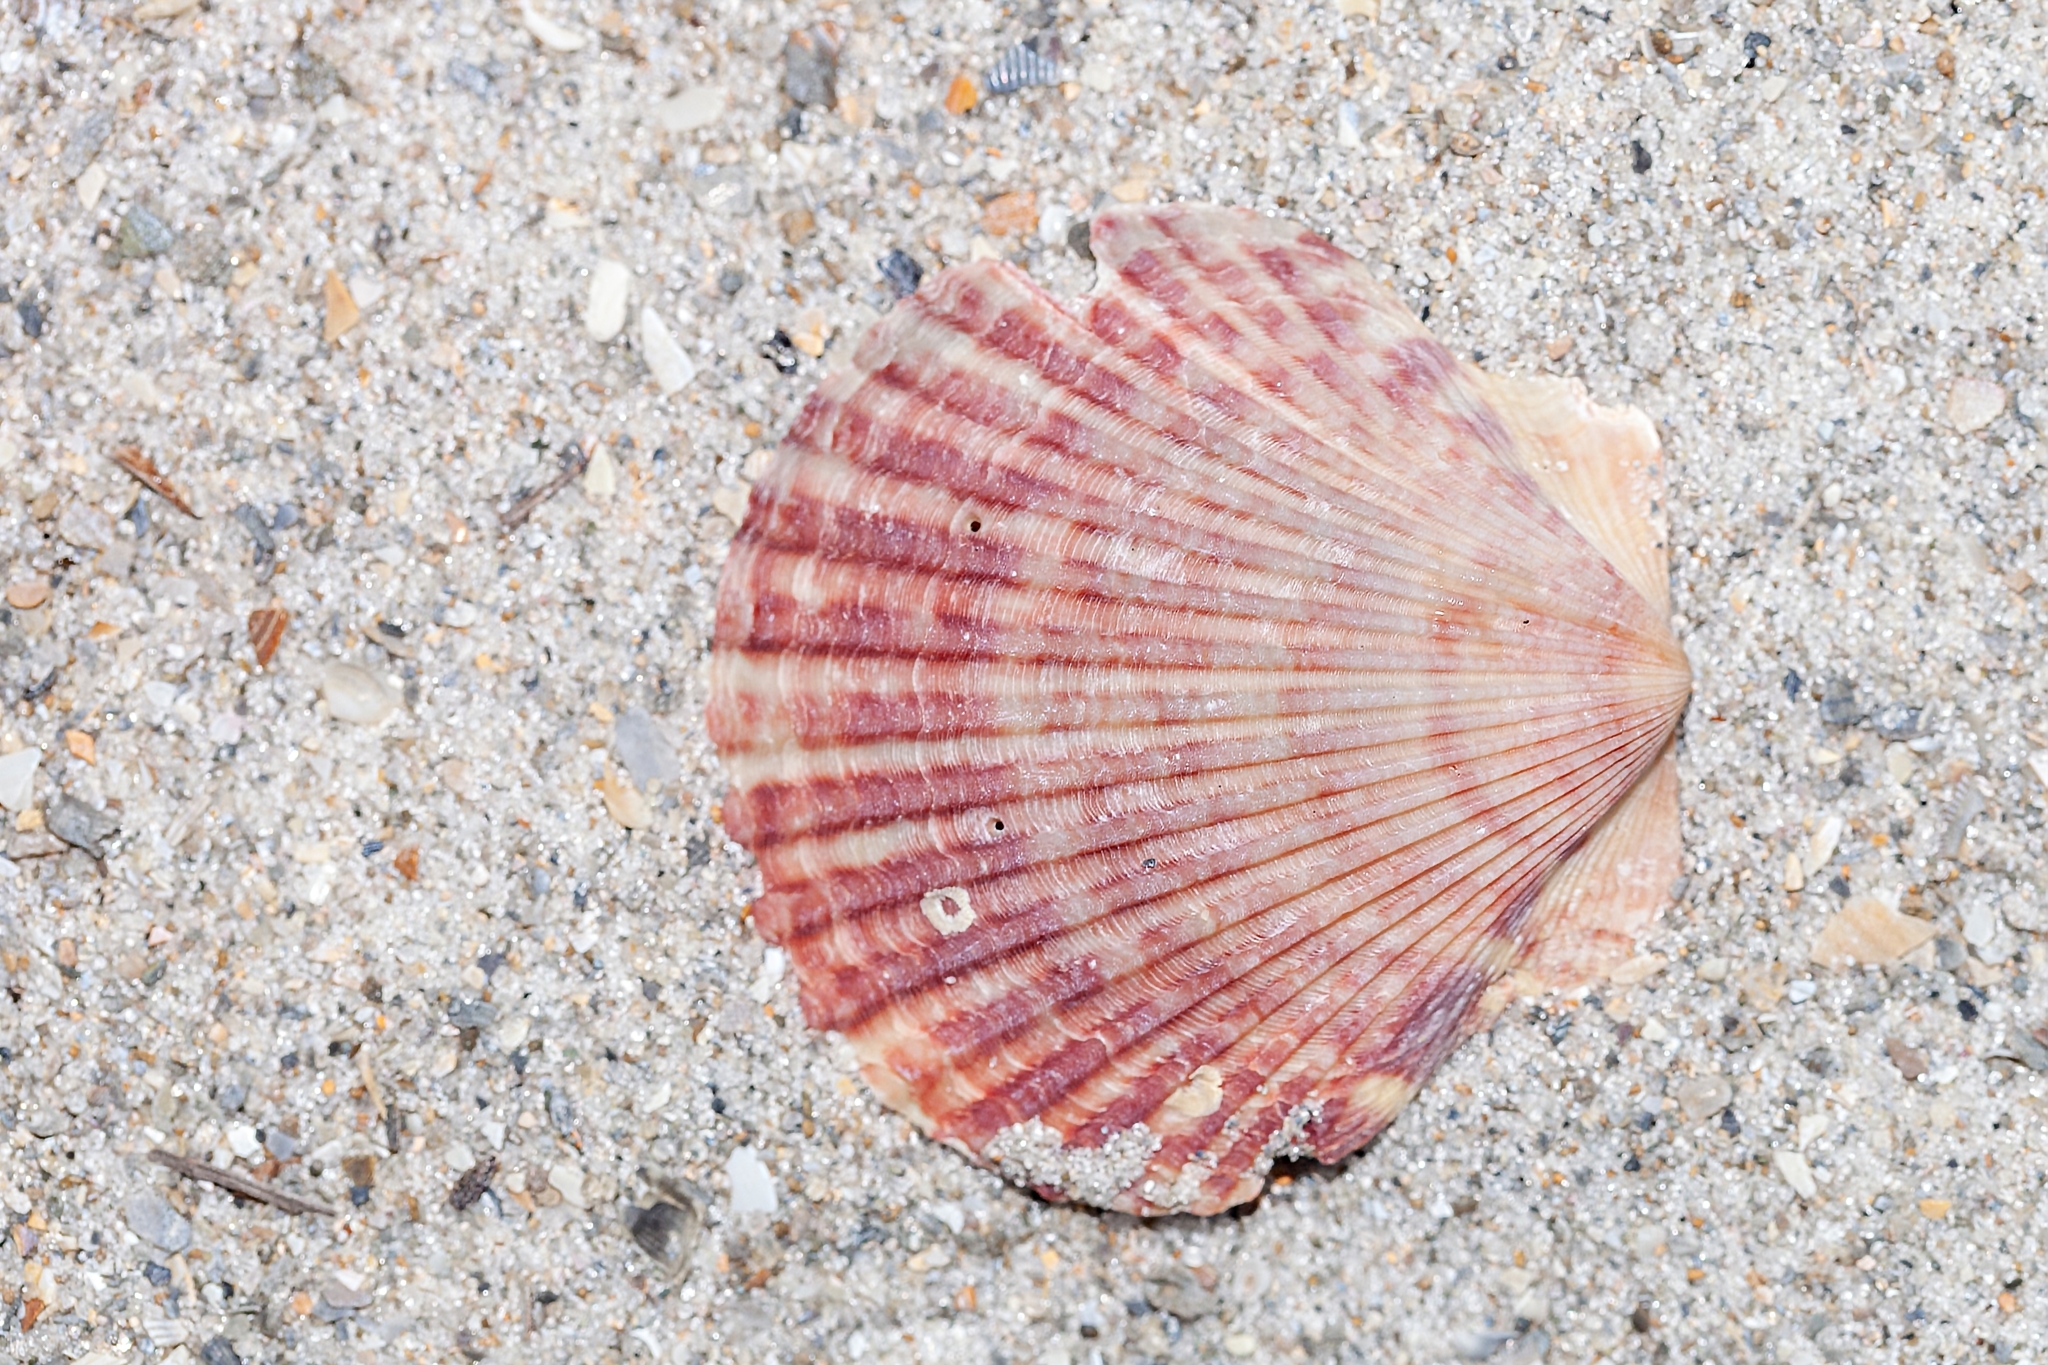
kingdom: Animalia
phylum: Mollusca
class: Bivalvia
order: Pectinida
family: Pectinidae
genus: Argopecten
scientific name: Argopecten irradians
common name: Atlantic bay scallop
